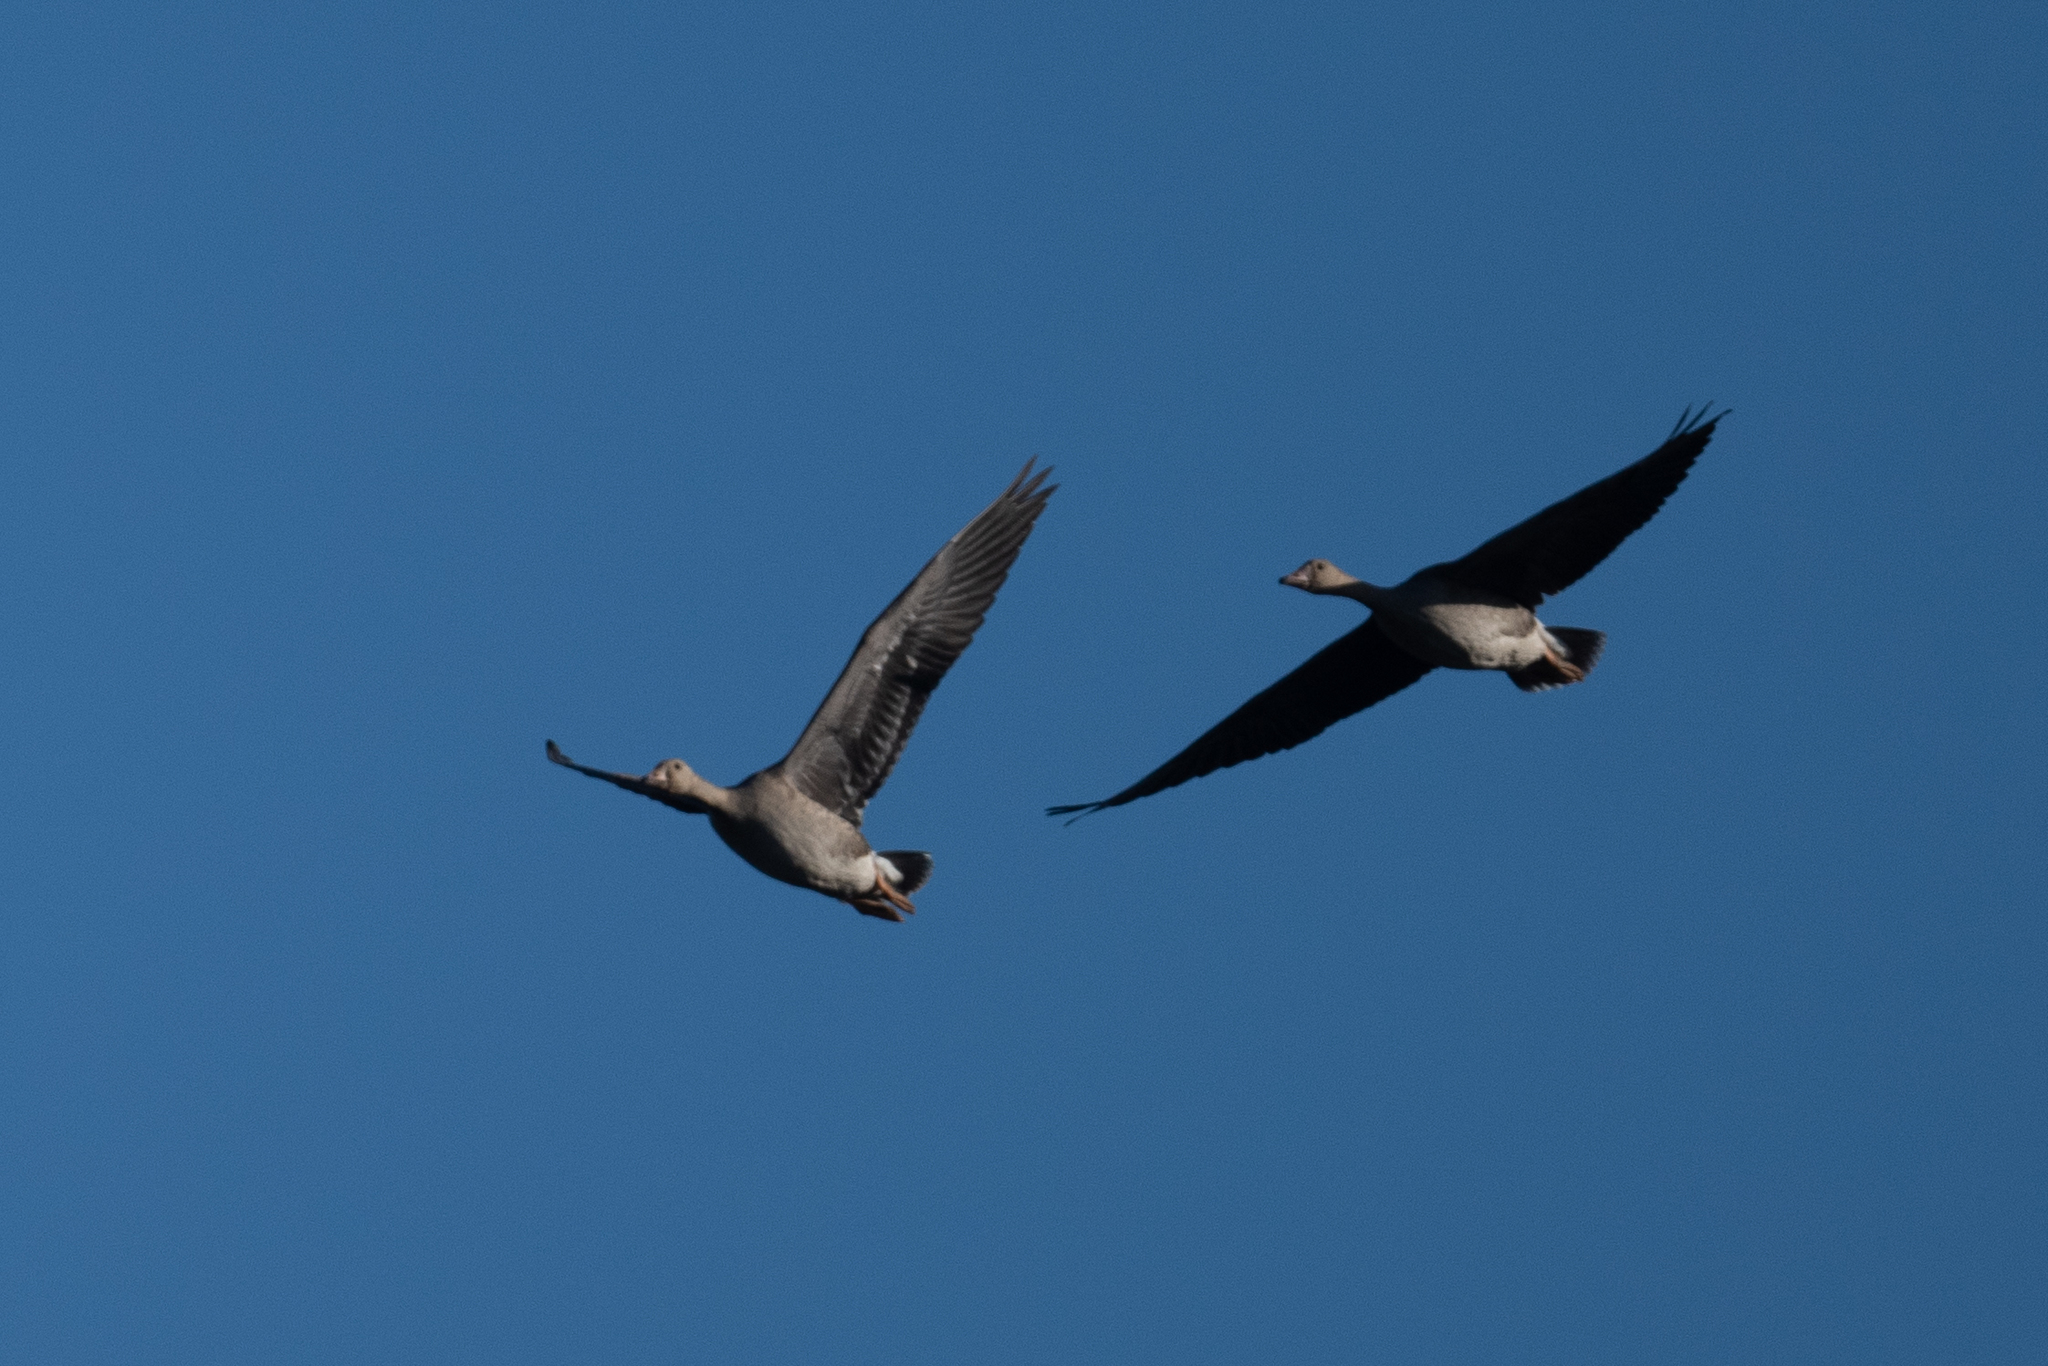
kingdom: Animalia
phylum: Chordata
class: Aves
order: Anseriformes
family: Anatidae
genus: Anser
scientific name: Anser albifrons
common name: Greater white-fronted goose
